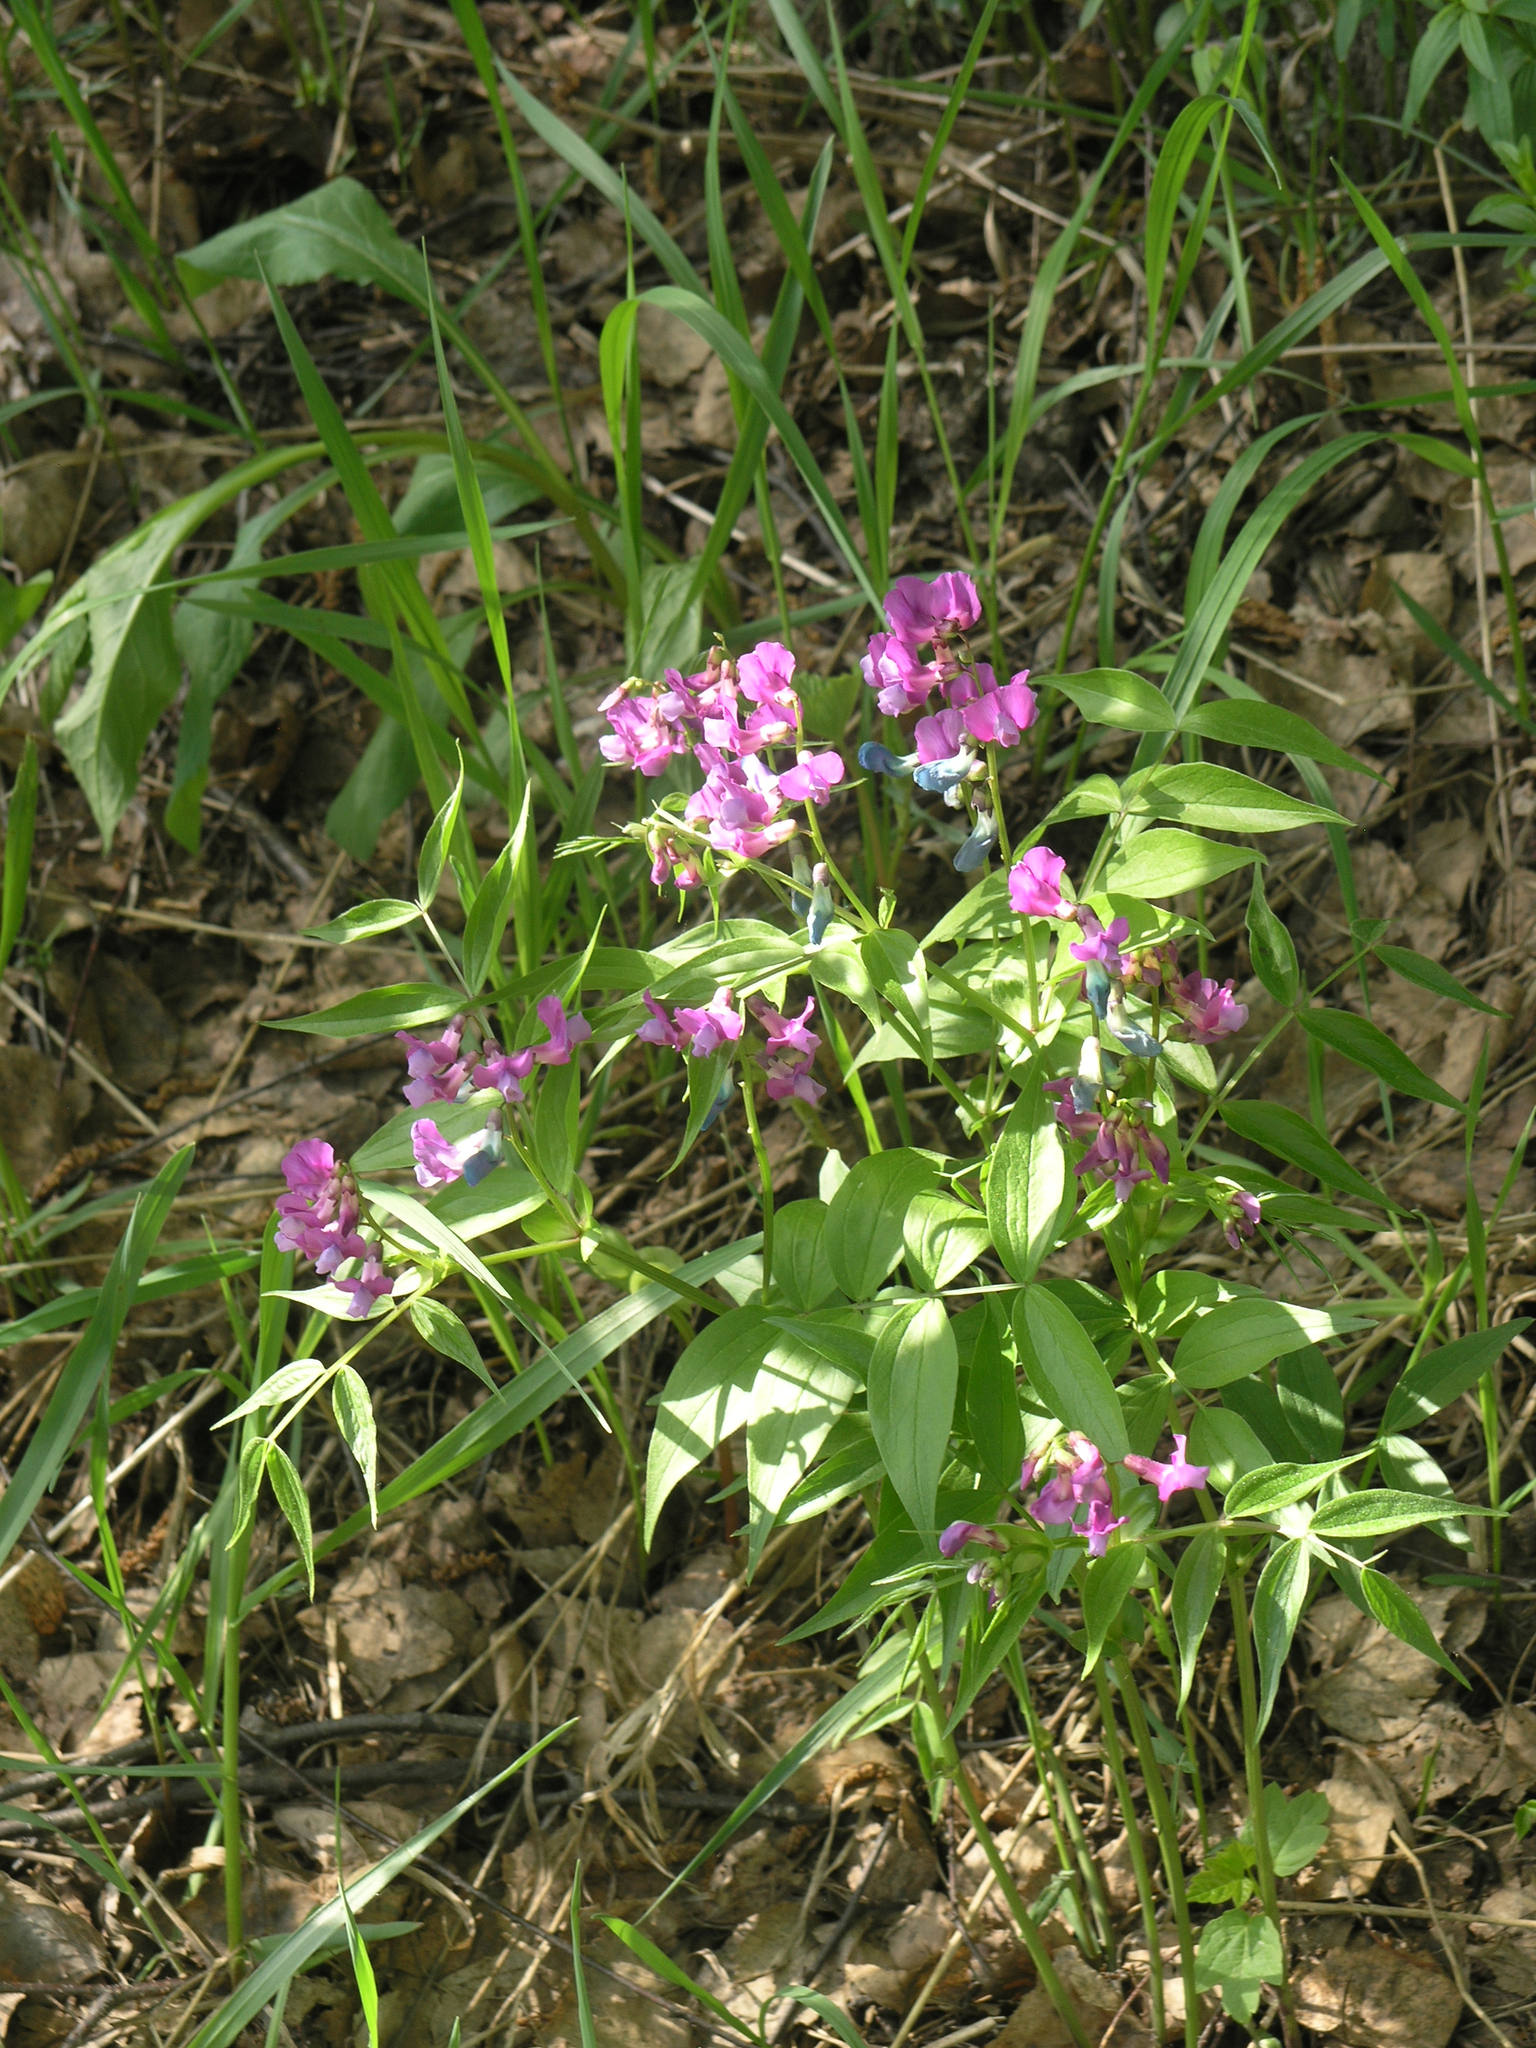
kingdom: Plantae
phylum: Tracheophyta
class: Magnoliopsida
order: Fabales
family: Fabaceae
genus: Lathyrus
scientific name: Lathyrus vernus
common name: Spring pea
